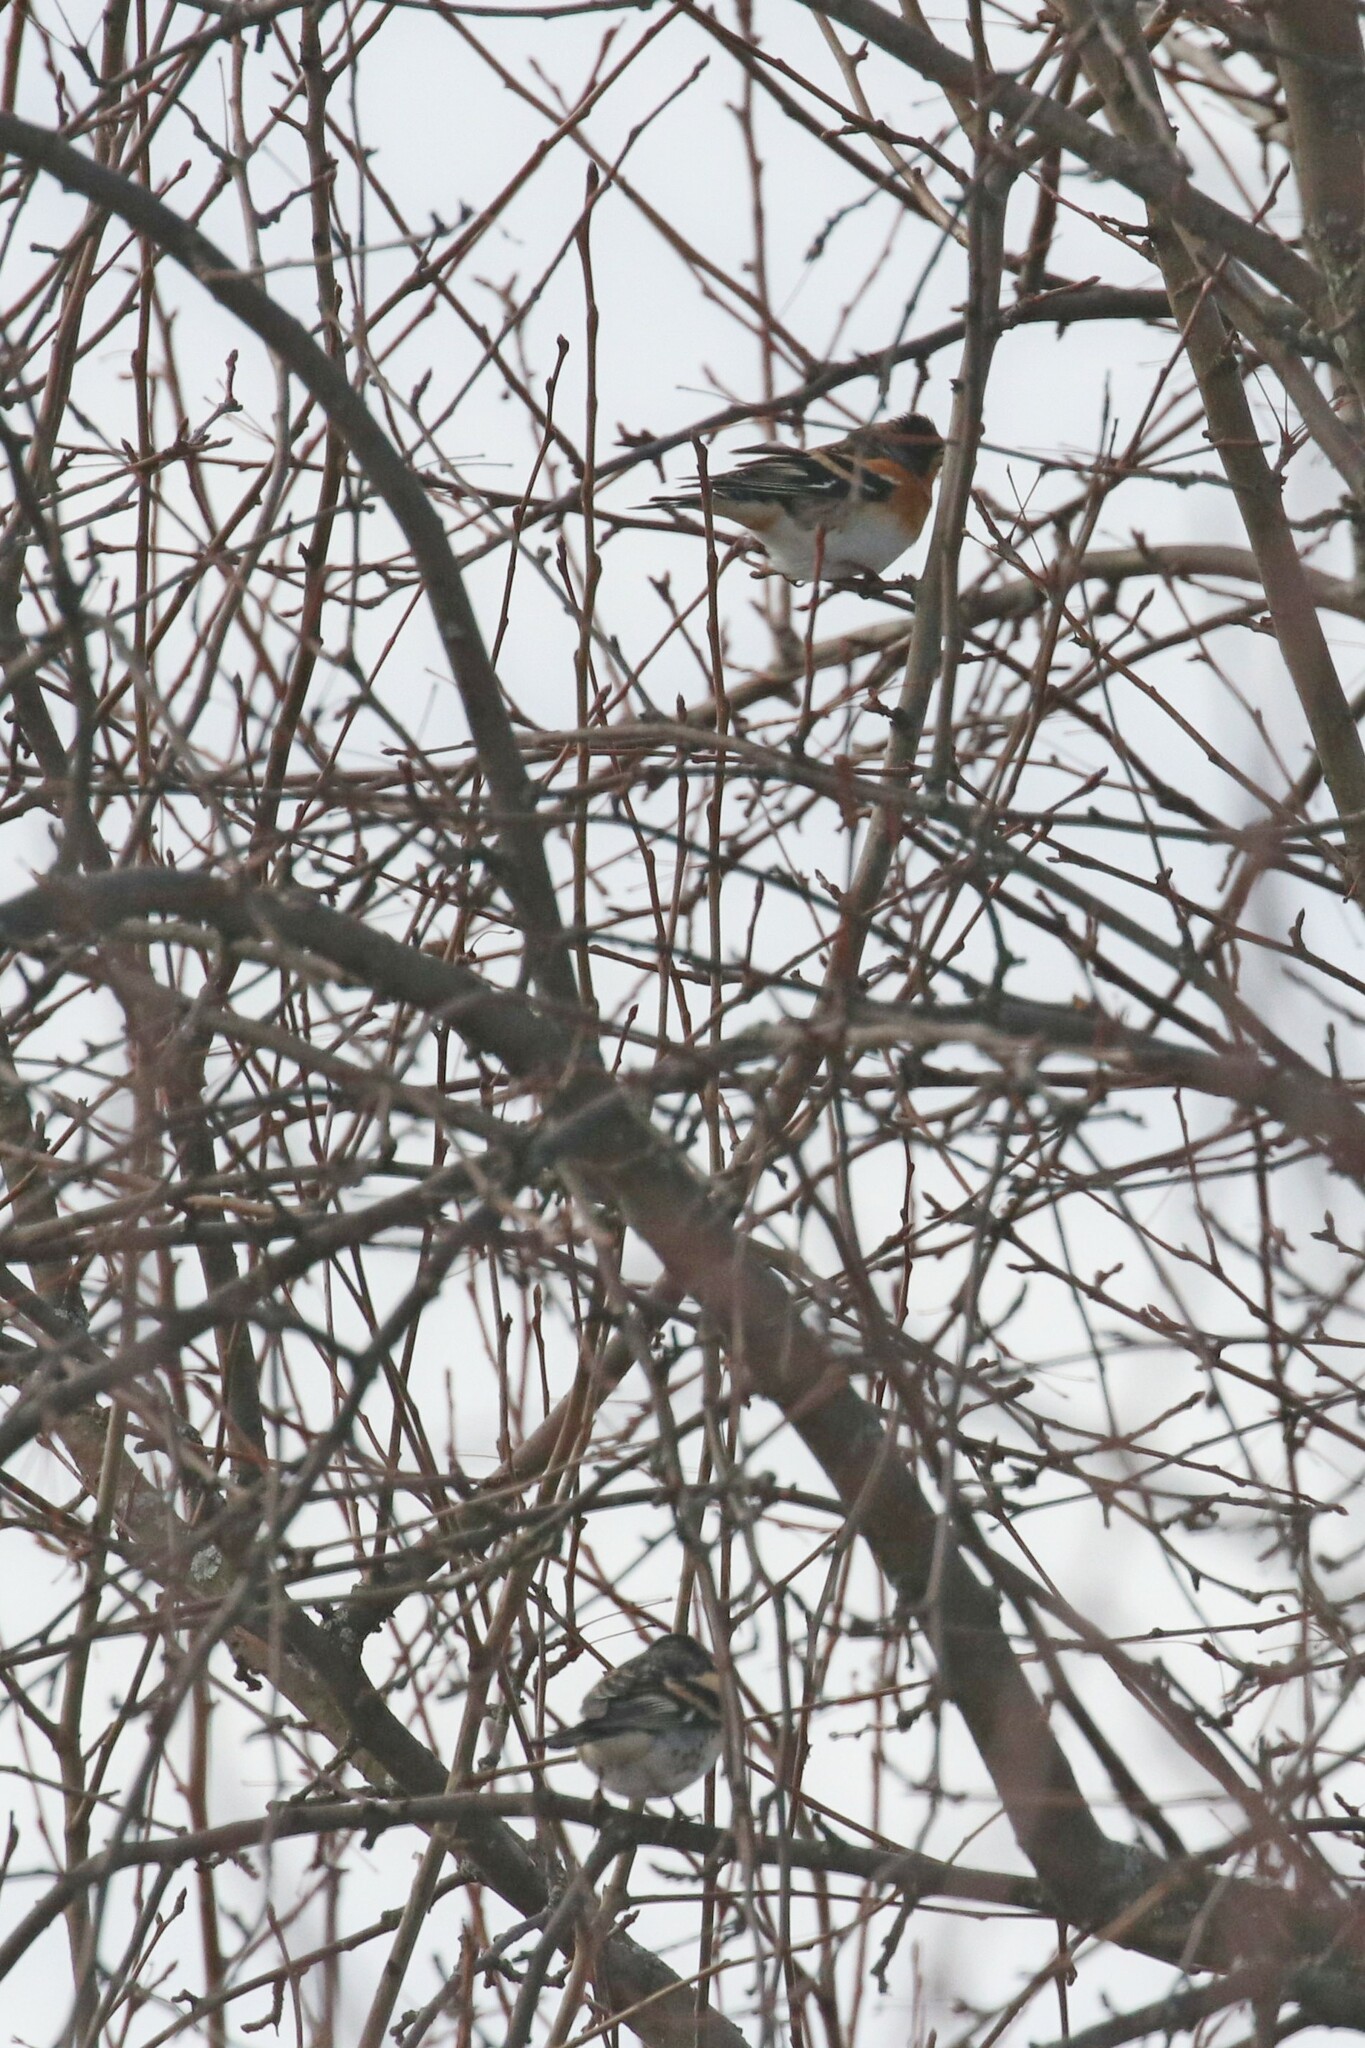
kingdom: Animalia
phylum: Chordata
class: Aves
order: Passeriformes
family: Fringillidae
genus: Fringilla
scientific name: Fringilla montifringilla
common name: Brambling
